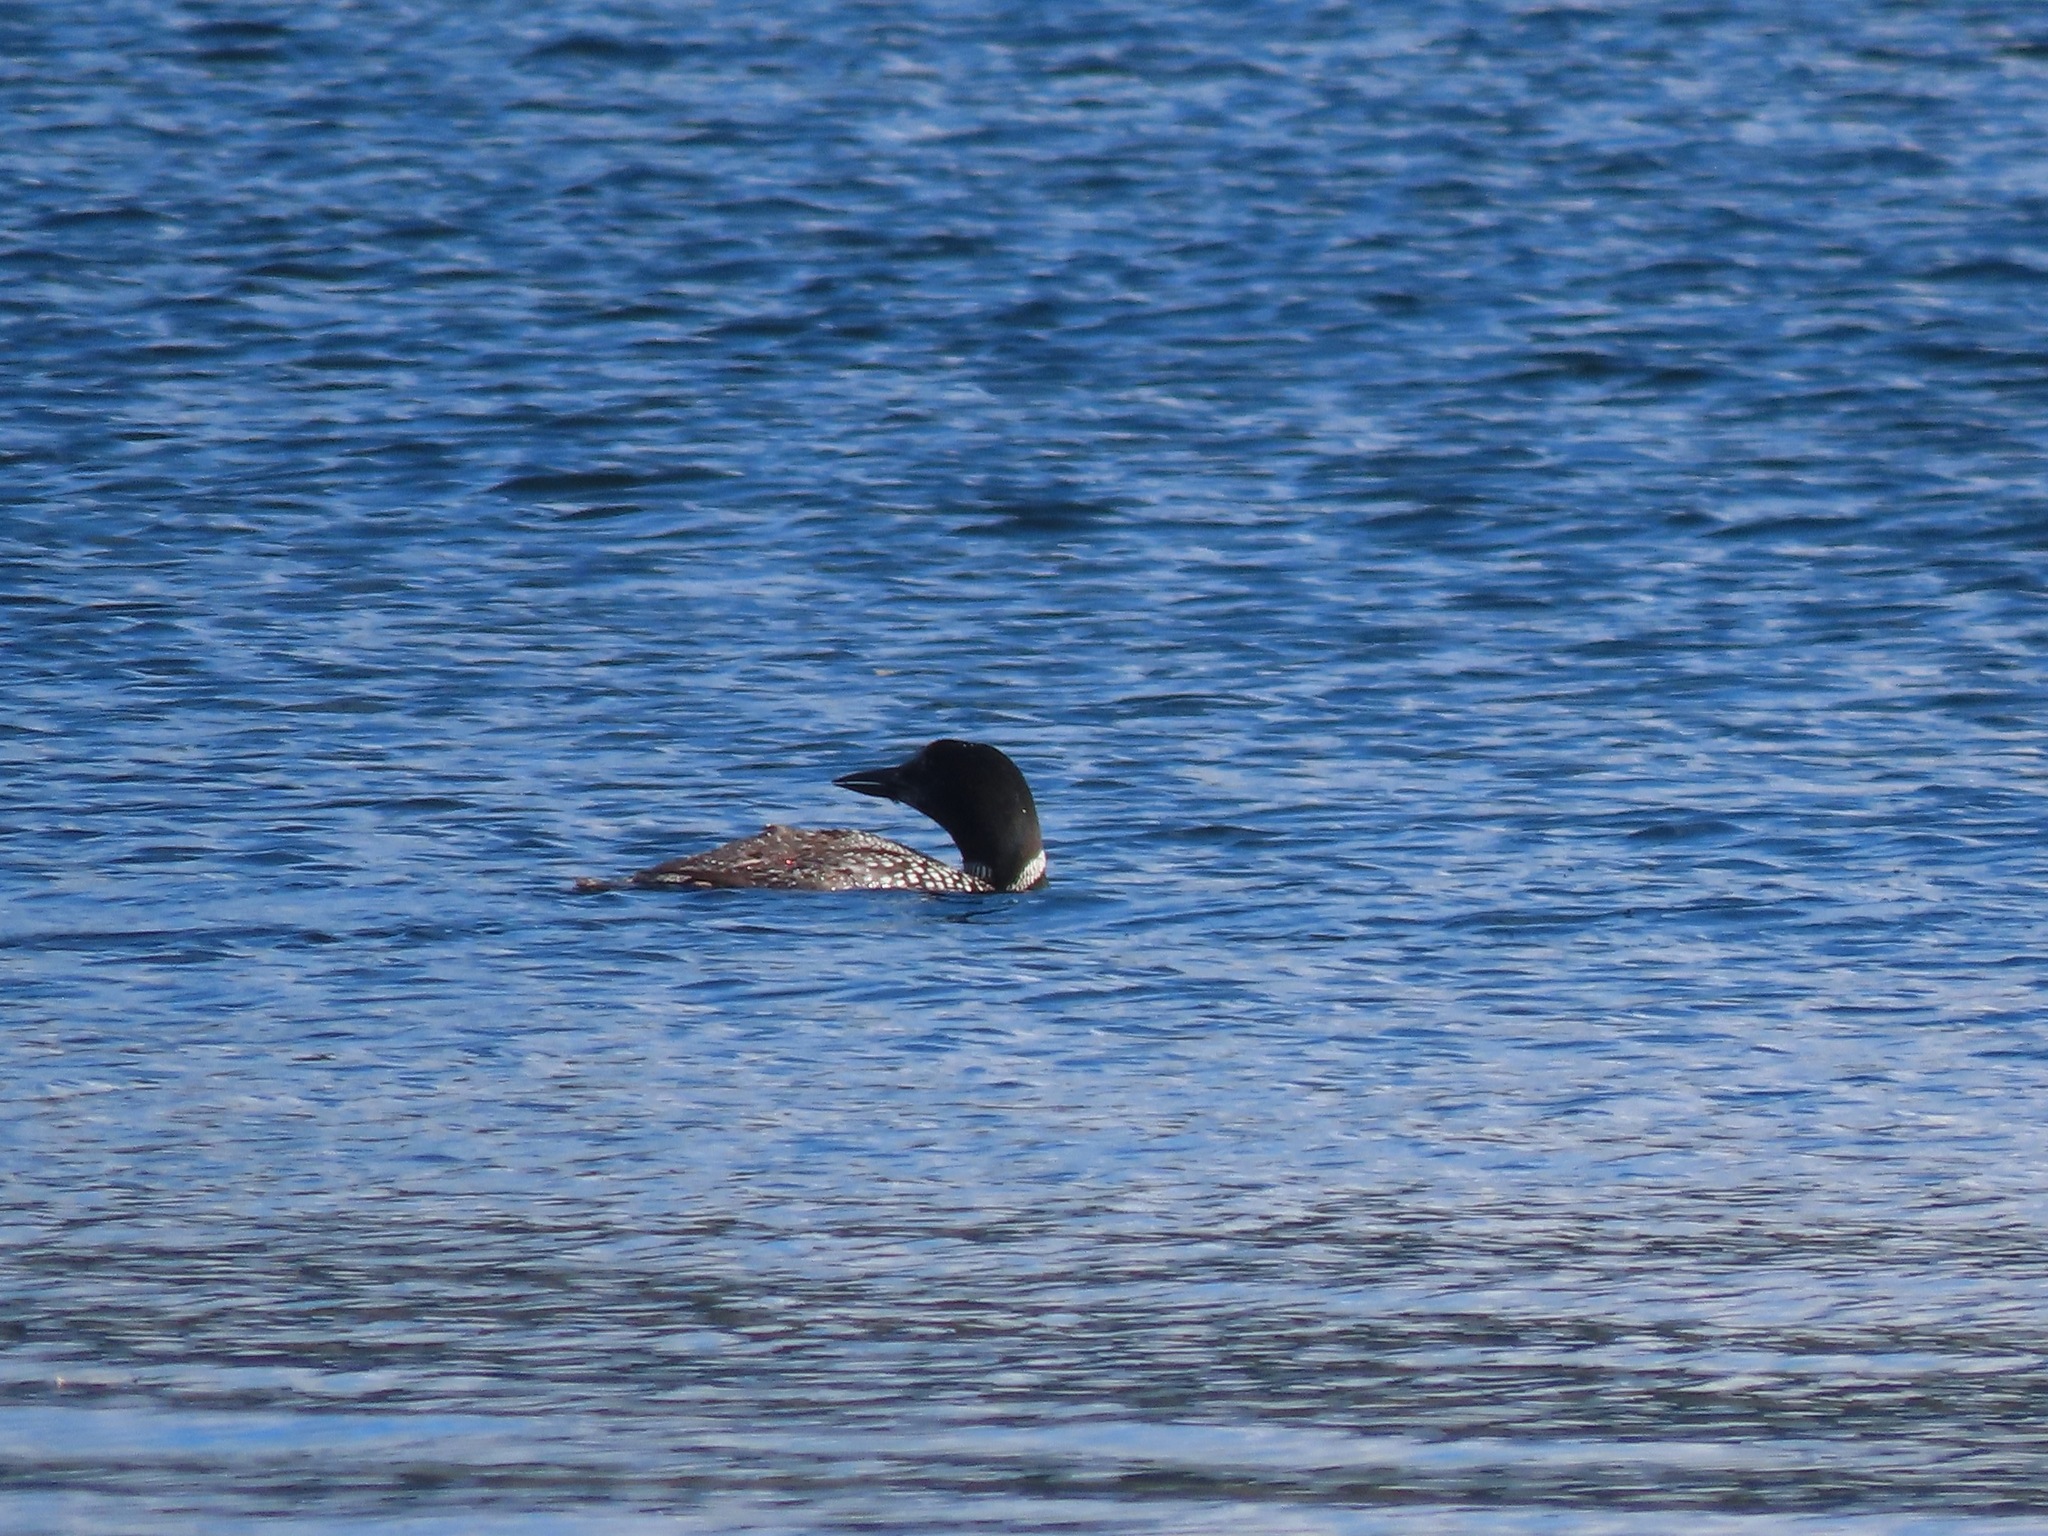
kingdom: Animalia
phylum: Chordata
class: Aves
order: Gaviiformes
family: Gaviidae
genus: Gavia
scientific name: Gavia immer
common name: Common loon
